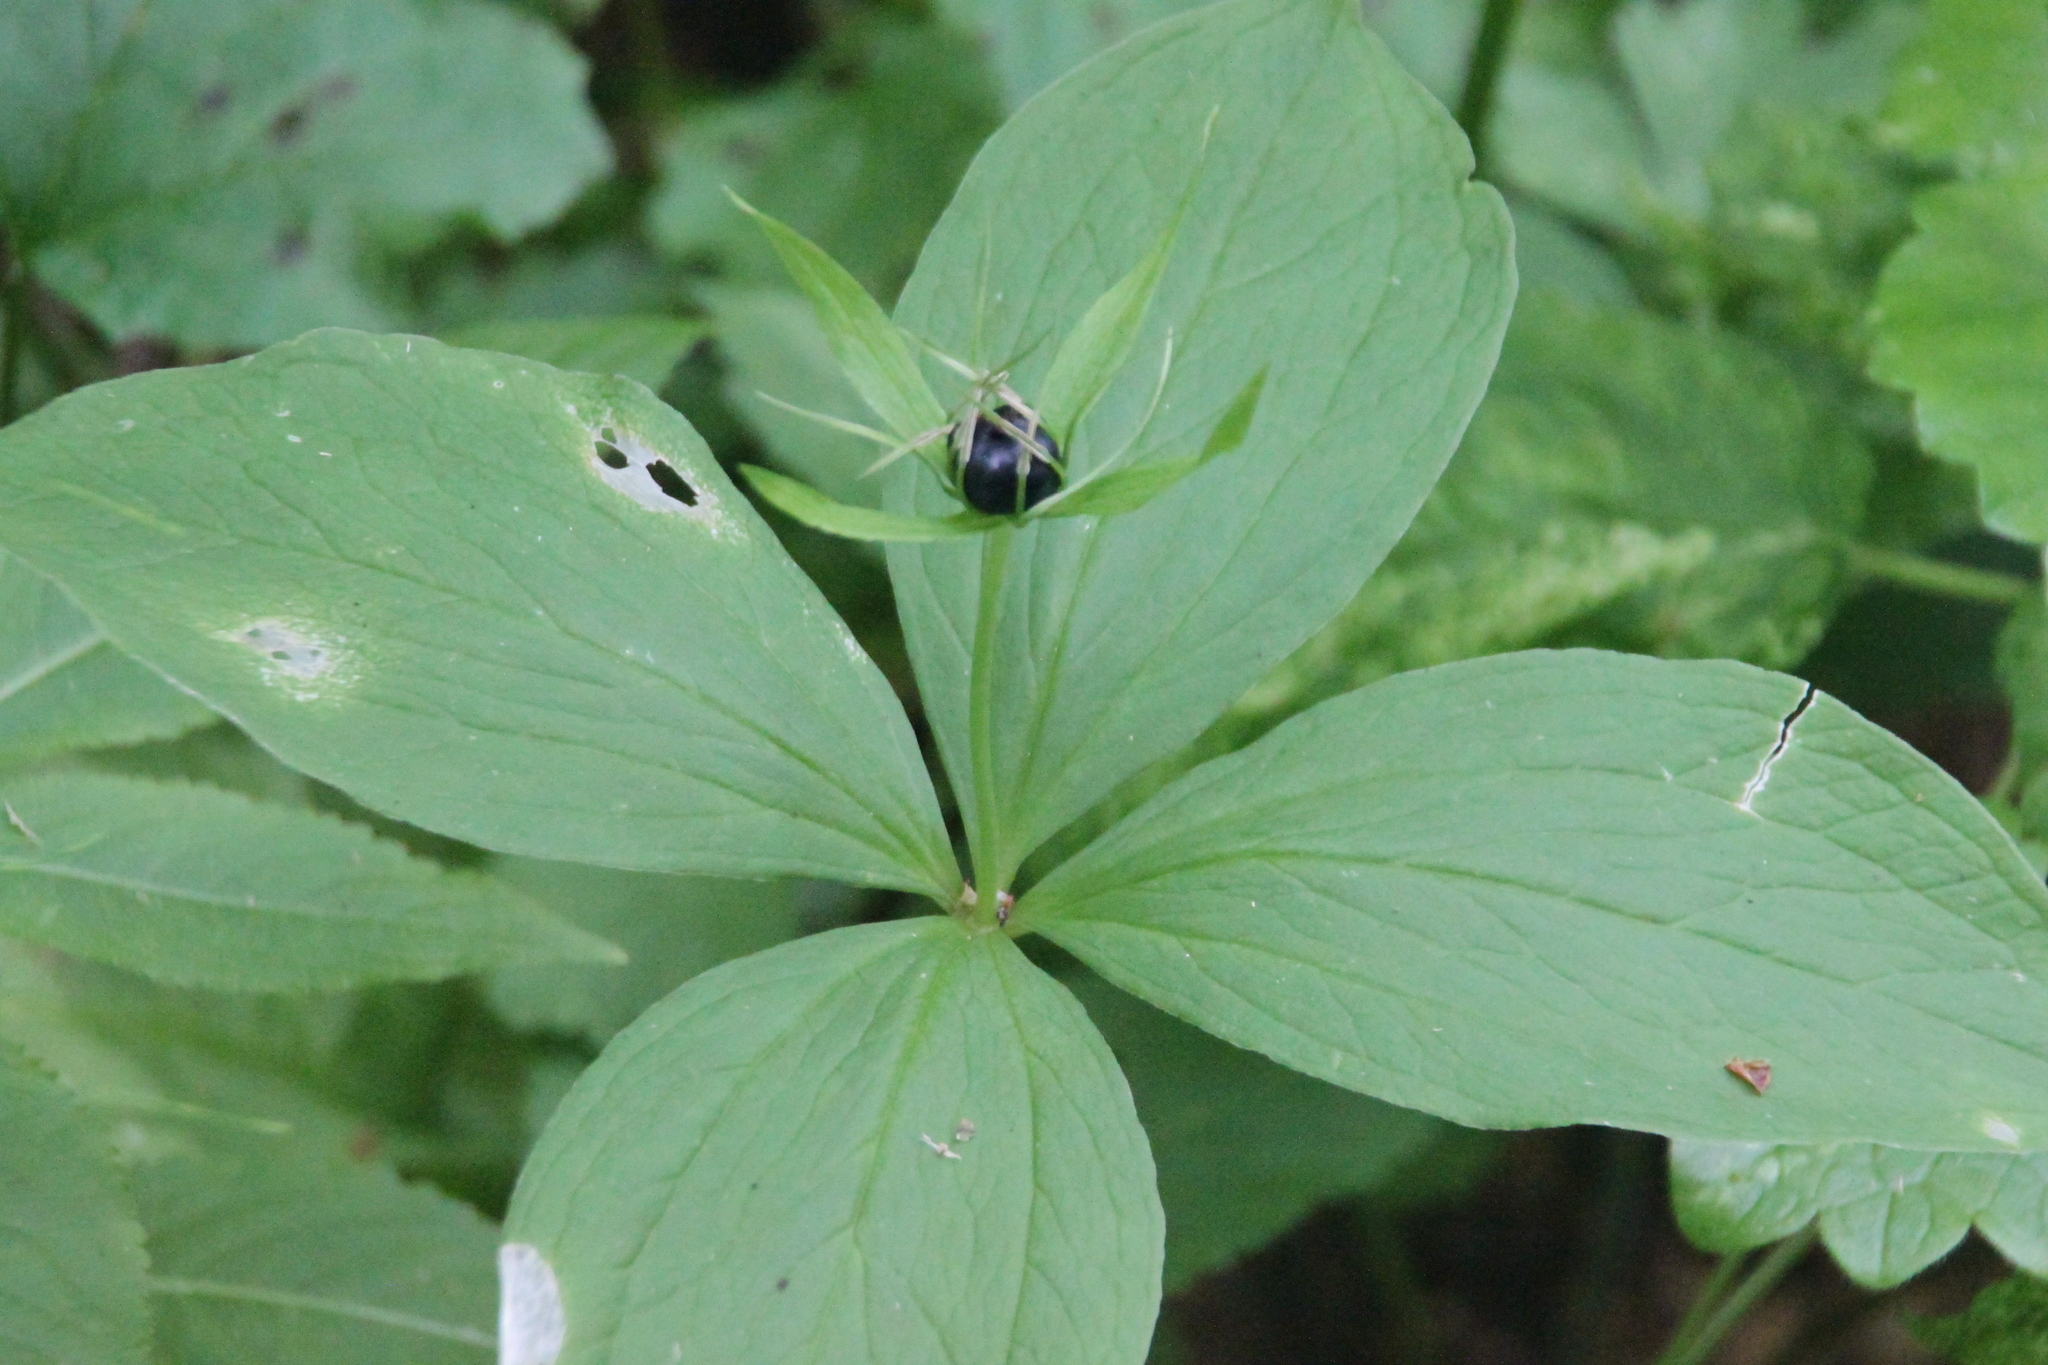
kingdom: Plantae
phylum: Tracheophyta
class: Liliopsida
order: Liliales
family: Melanthiaceae
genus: Paris
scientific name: Paris quadrifolia
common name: Herb-paris
